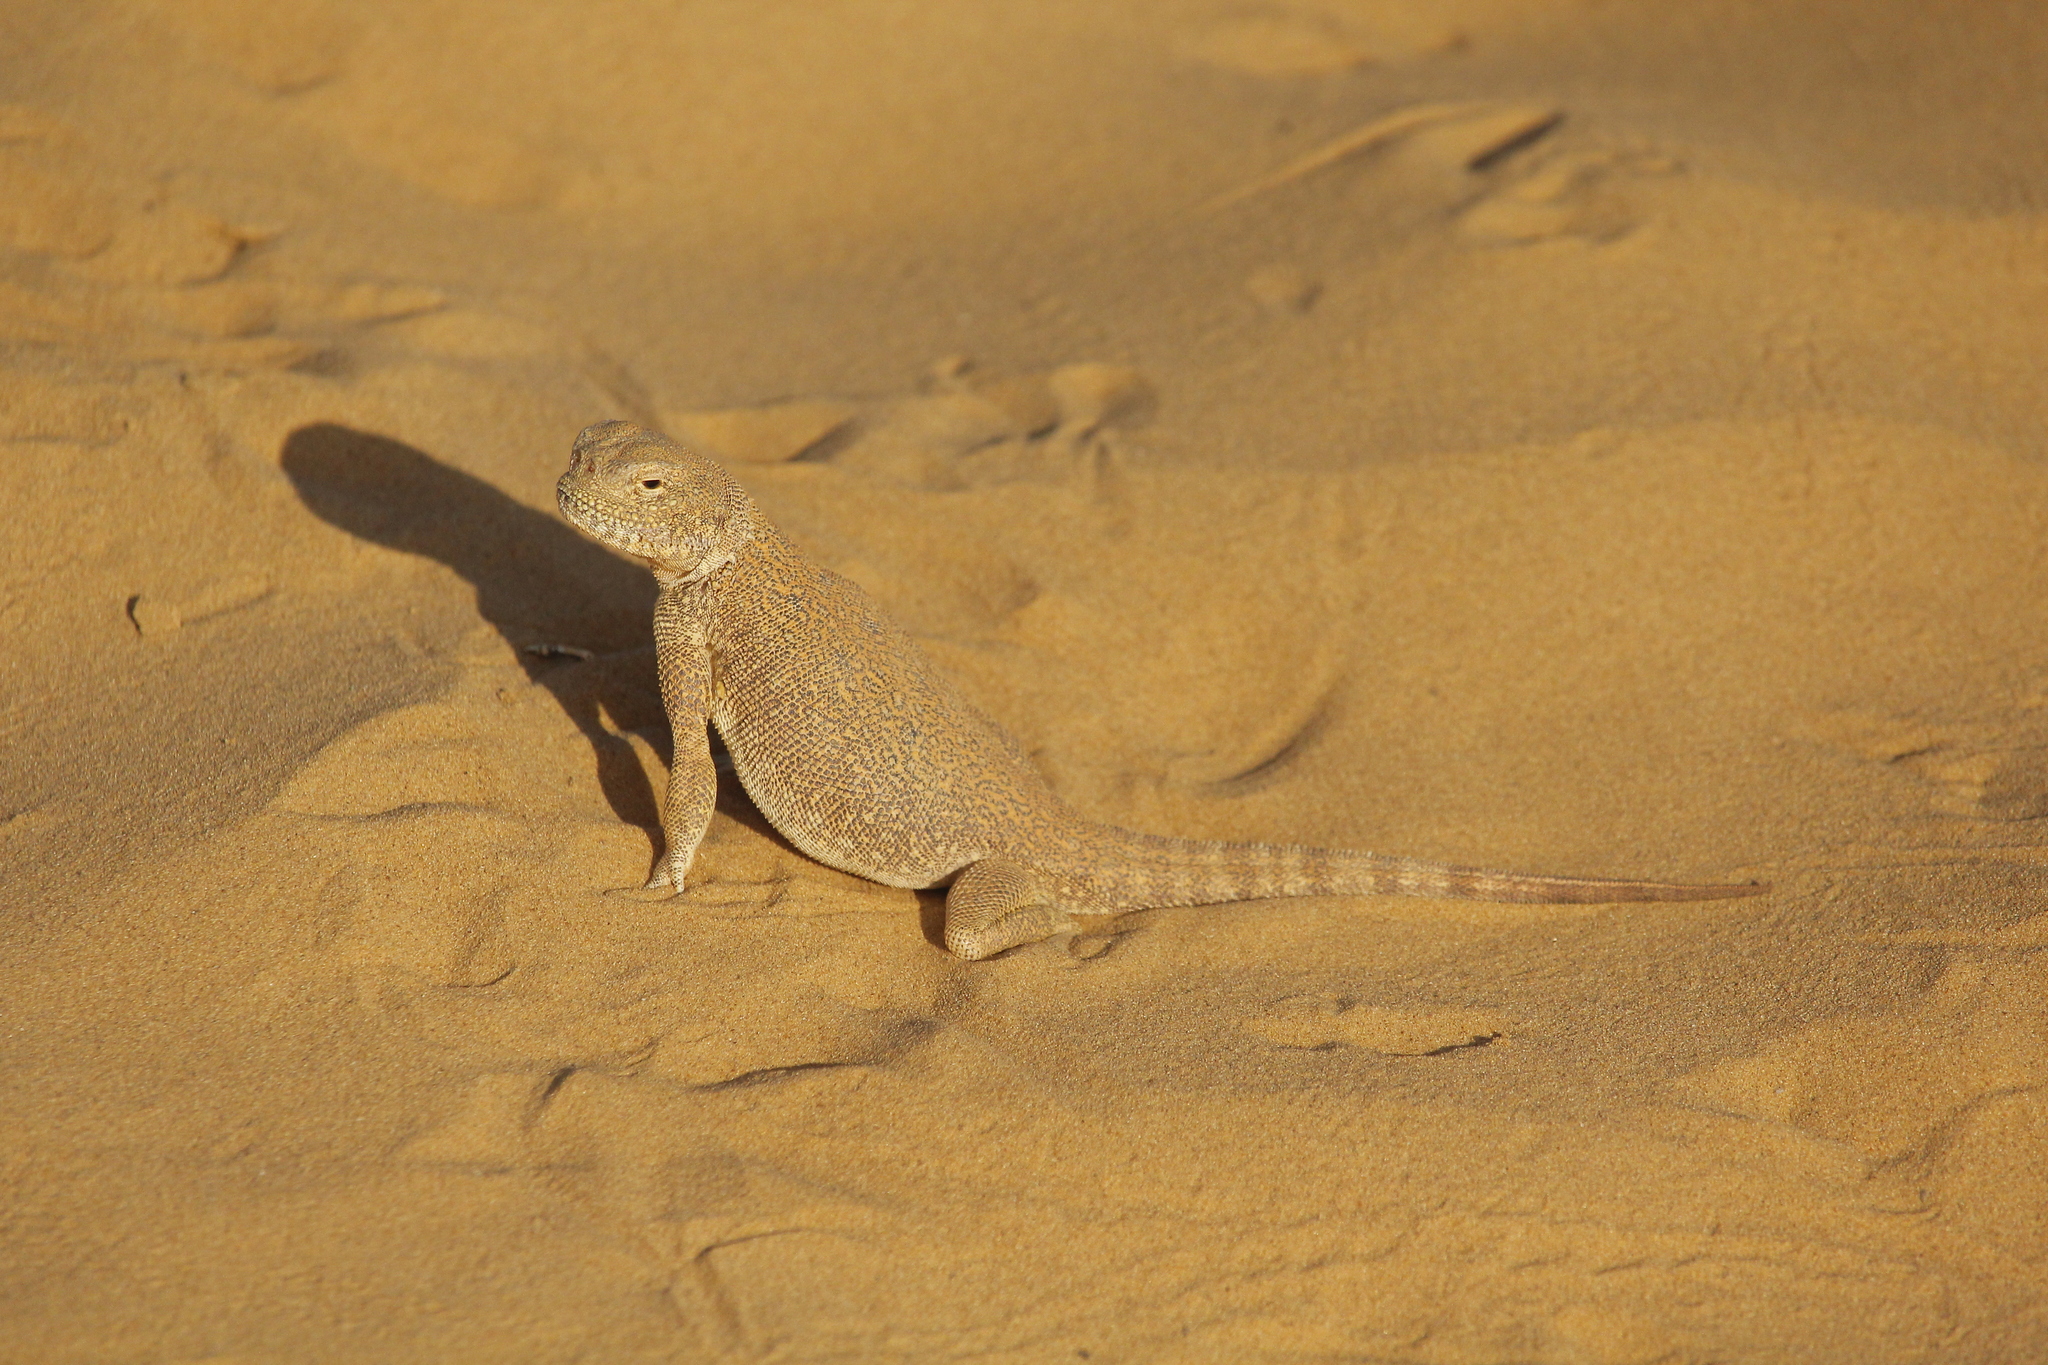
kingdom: Animalia
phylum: Chordata
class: Squamata
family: Agamidae
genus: Phrynocephalus
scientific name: Phrynocephalus mystaceus
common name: Secret toadhead agama
